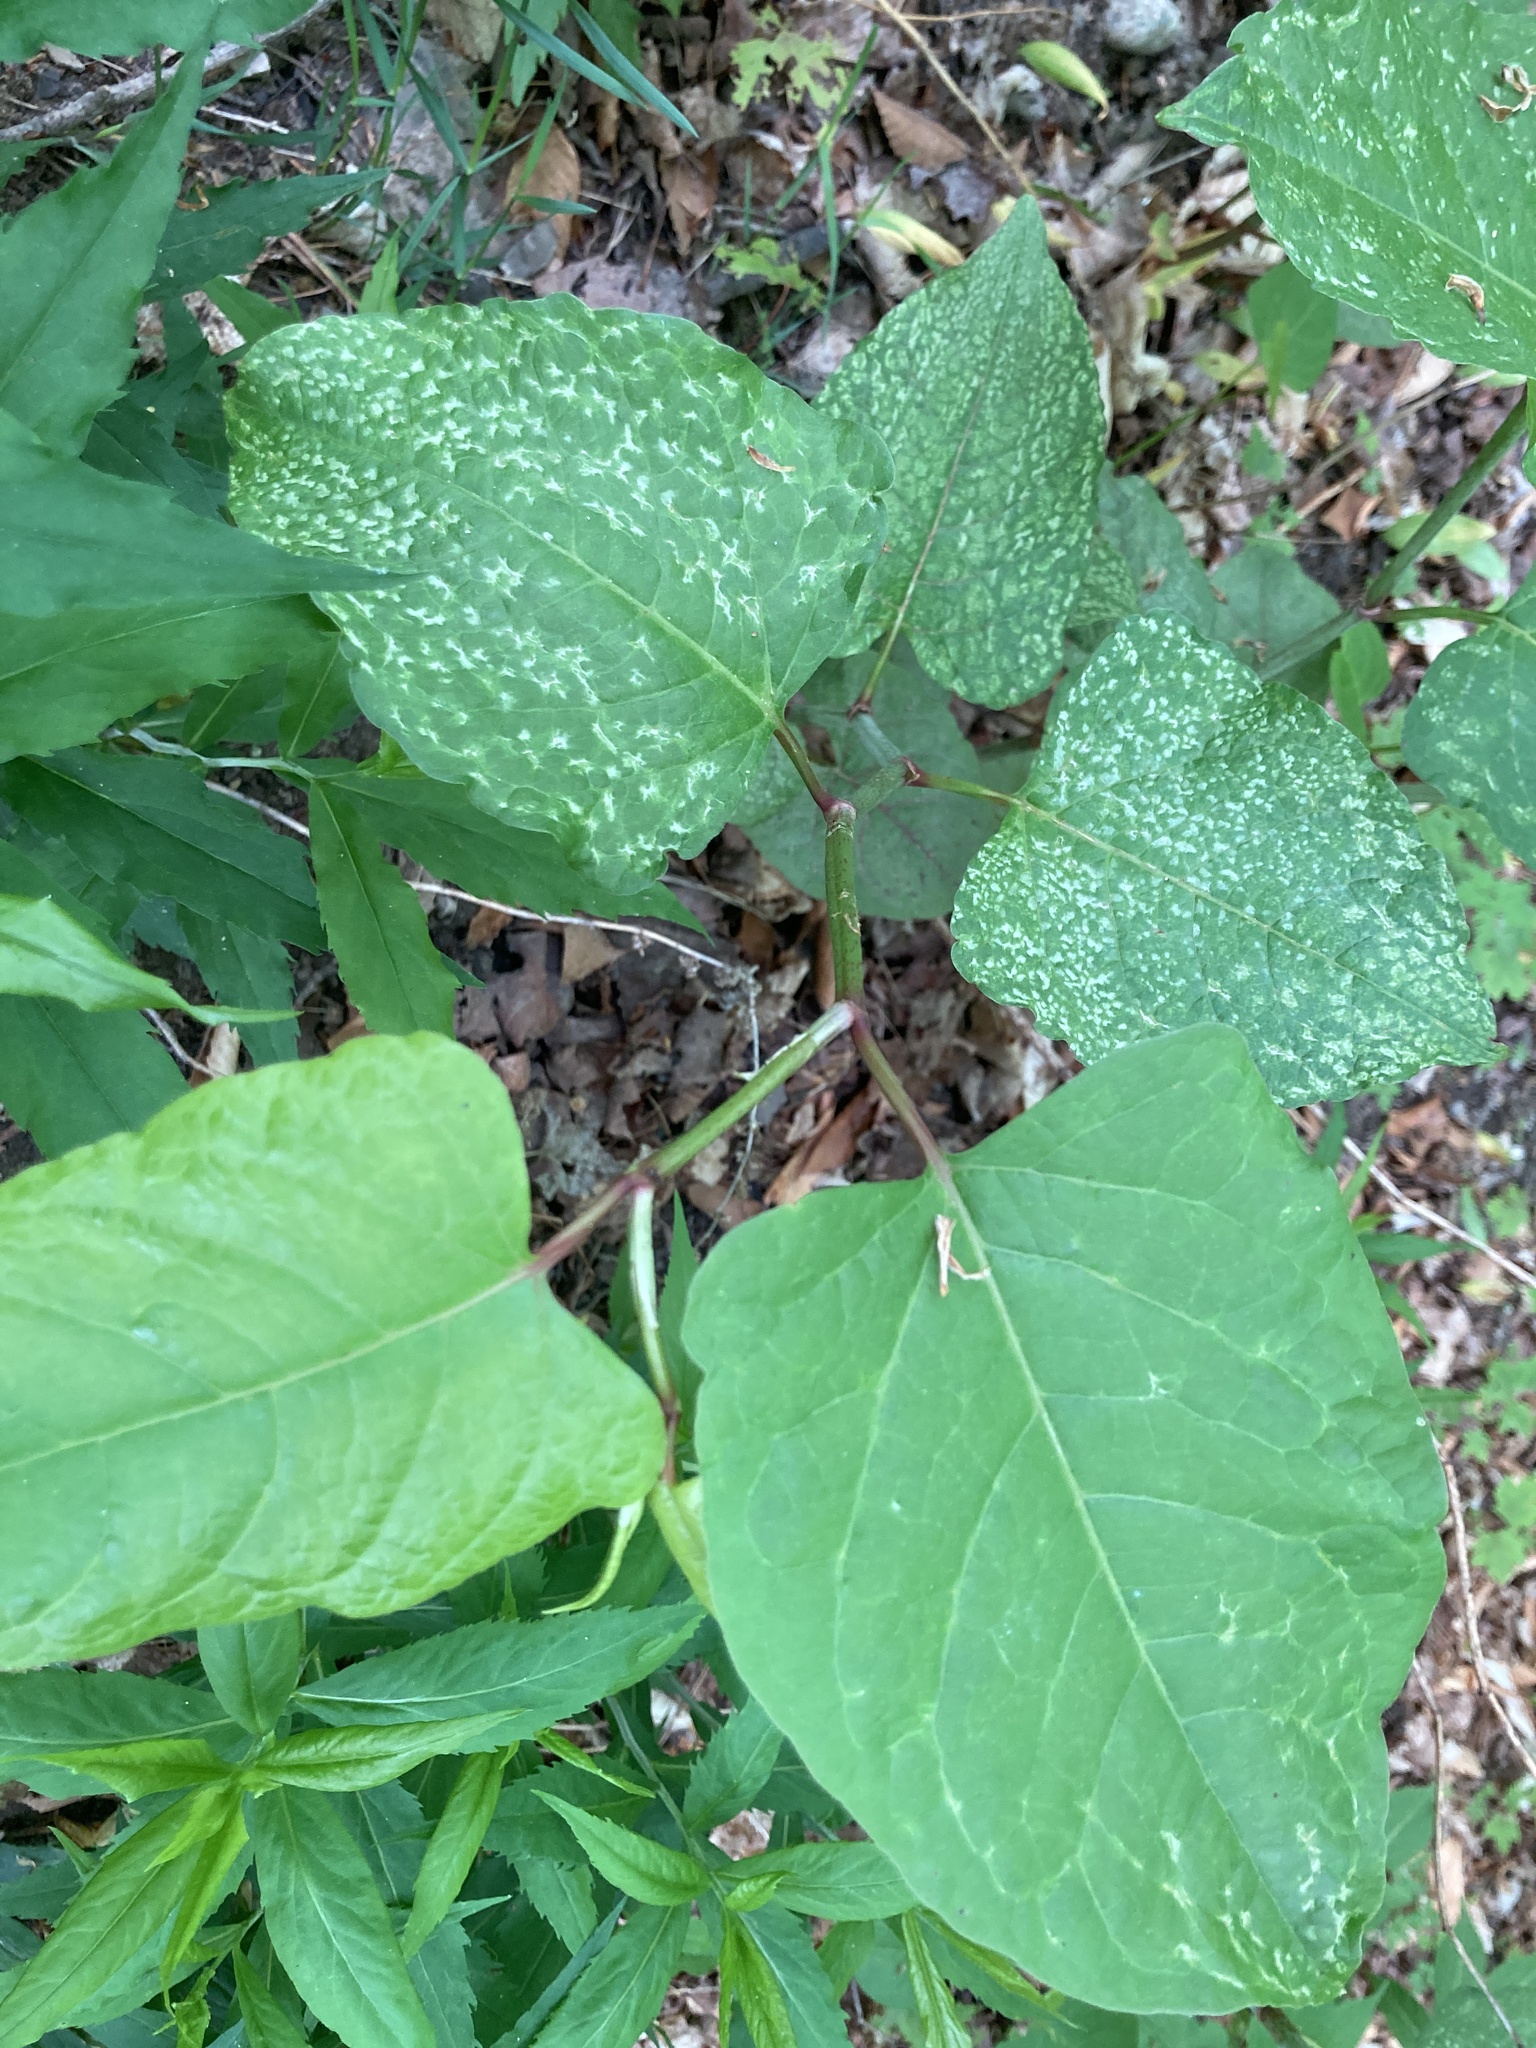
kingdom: Plantae
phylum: Tracheophyta
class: Magnoliopsida
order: Caryophyllales
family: Polygonaceae
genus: Reynoutria
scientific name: Reynoutria japonica
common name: Japanese knotweed
